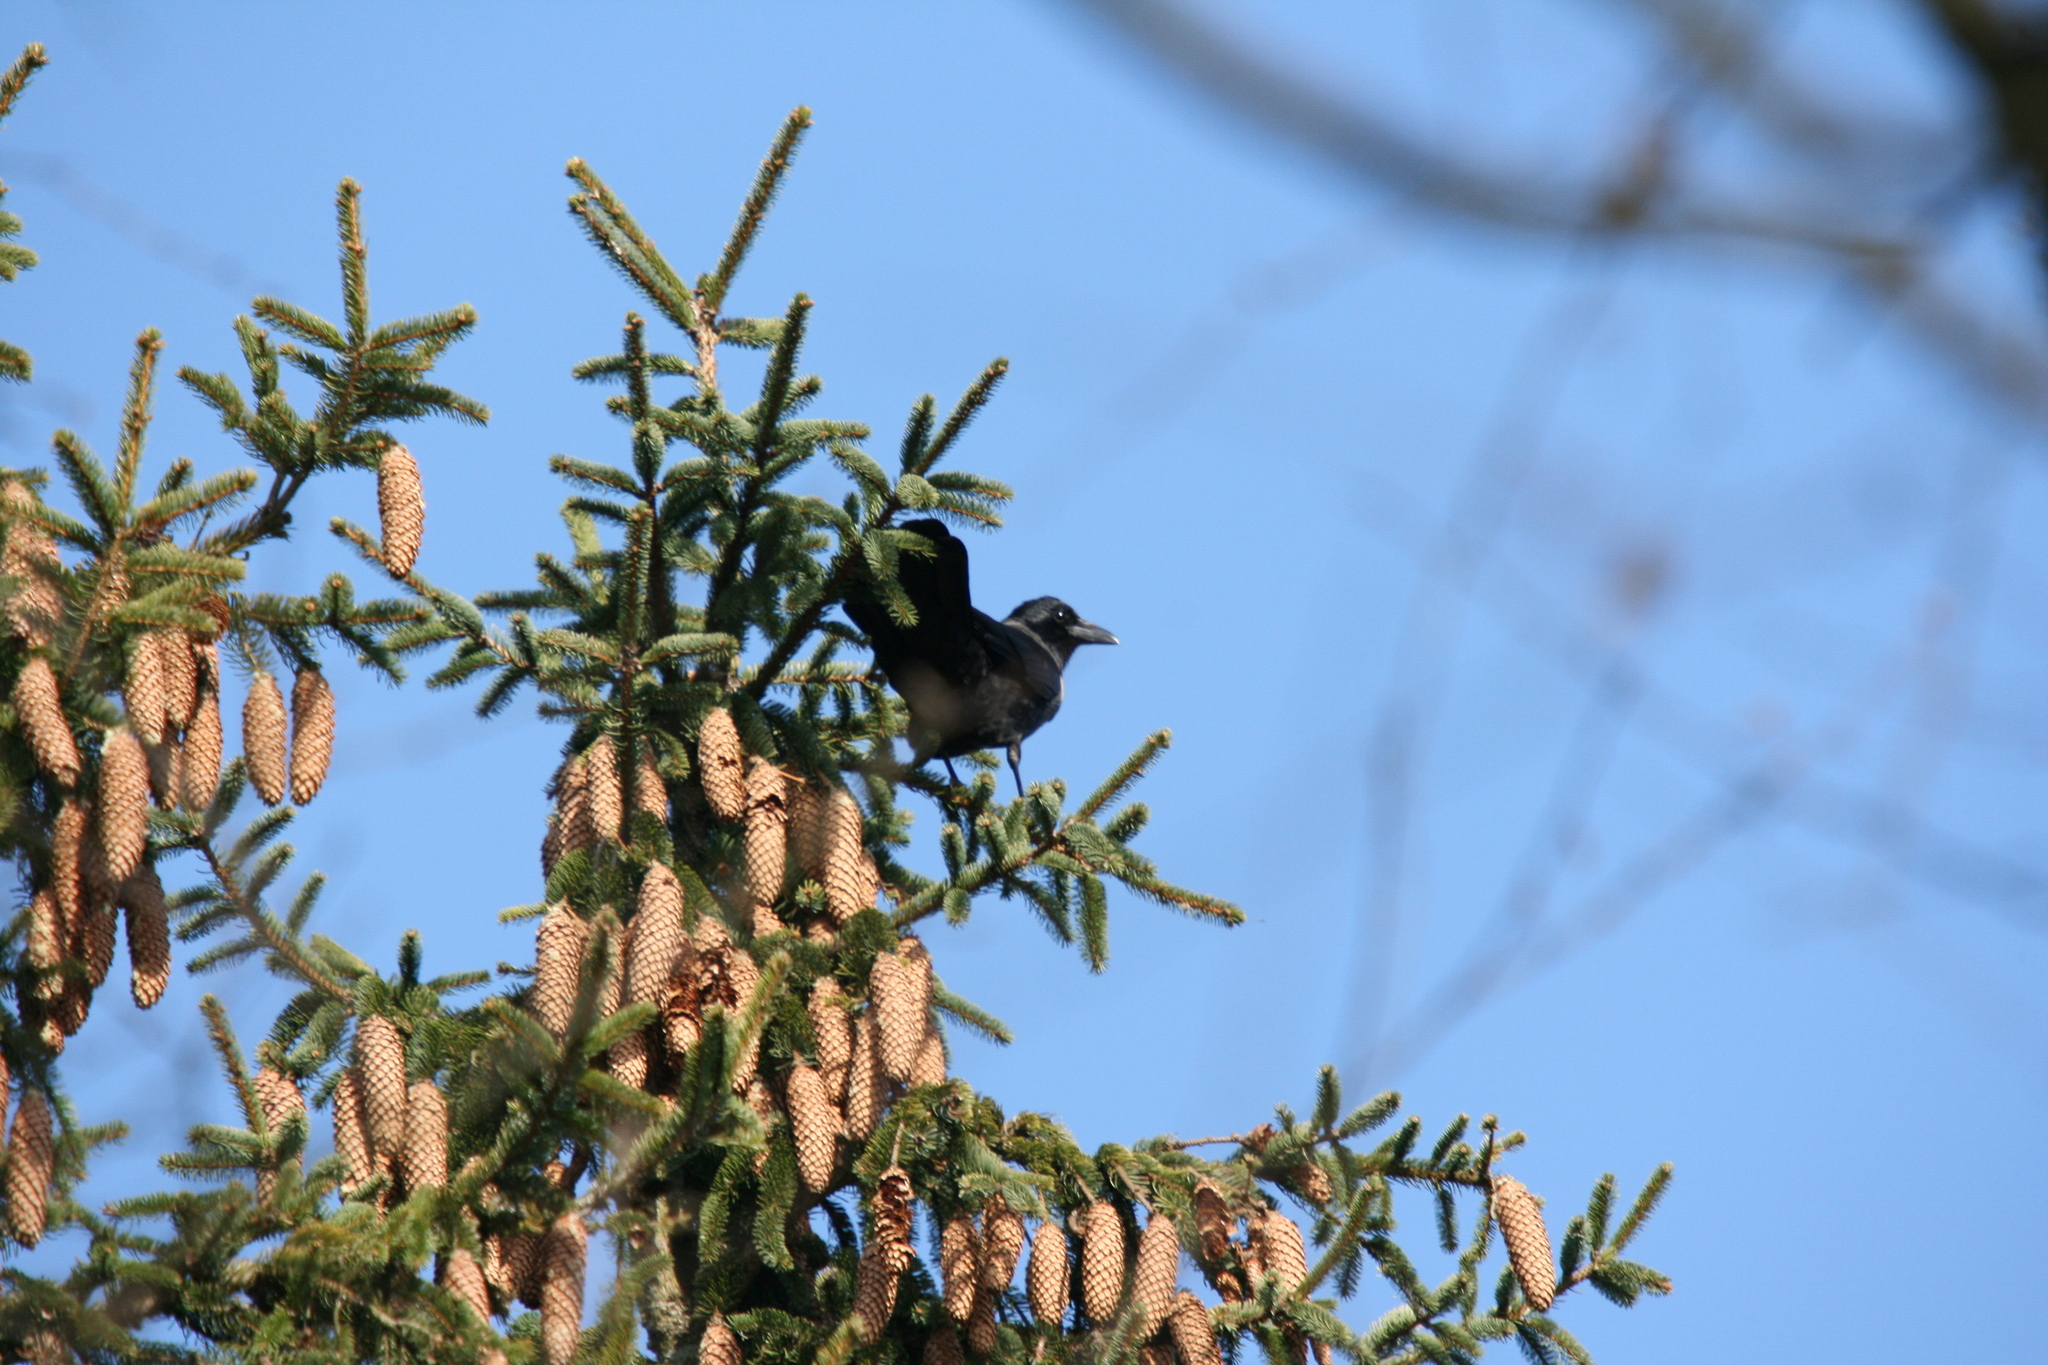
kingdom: Animalia
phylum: Chordata
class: Aves
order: Passeriformes
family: Corvidae
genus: Corvus
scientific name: Corvus corone
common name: Carrion crow
